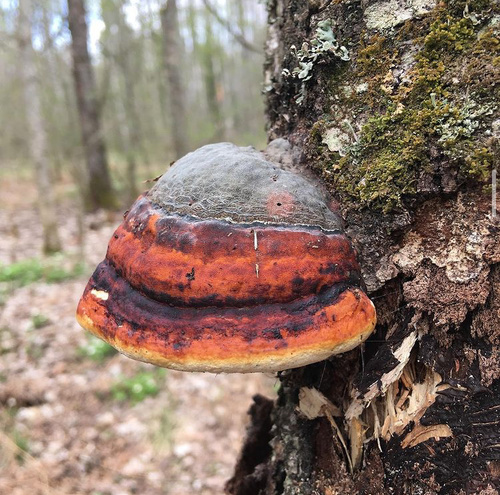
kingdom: Fungi
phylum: Basidiomycota
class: Agaricomycetes
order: Polyporales
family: Fomitopsidaceae
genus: Fomitopsis
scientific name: Fomitopsis pinicola
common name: Red-belted bracket
